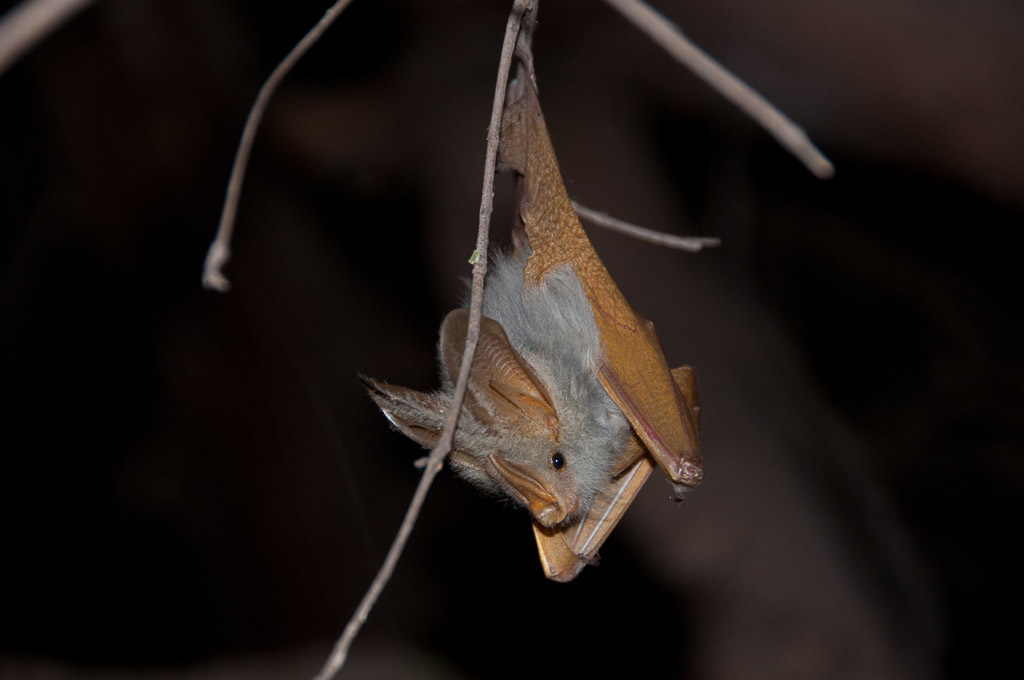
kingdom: Animalia
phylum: Chordata
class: Mammalia
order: Chiroptera
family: Megadermatidae
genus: Lavia
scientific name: Lavia frons
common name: Yellow-winged bat
